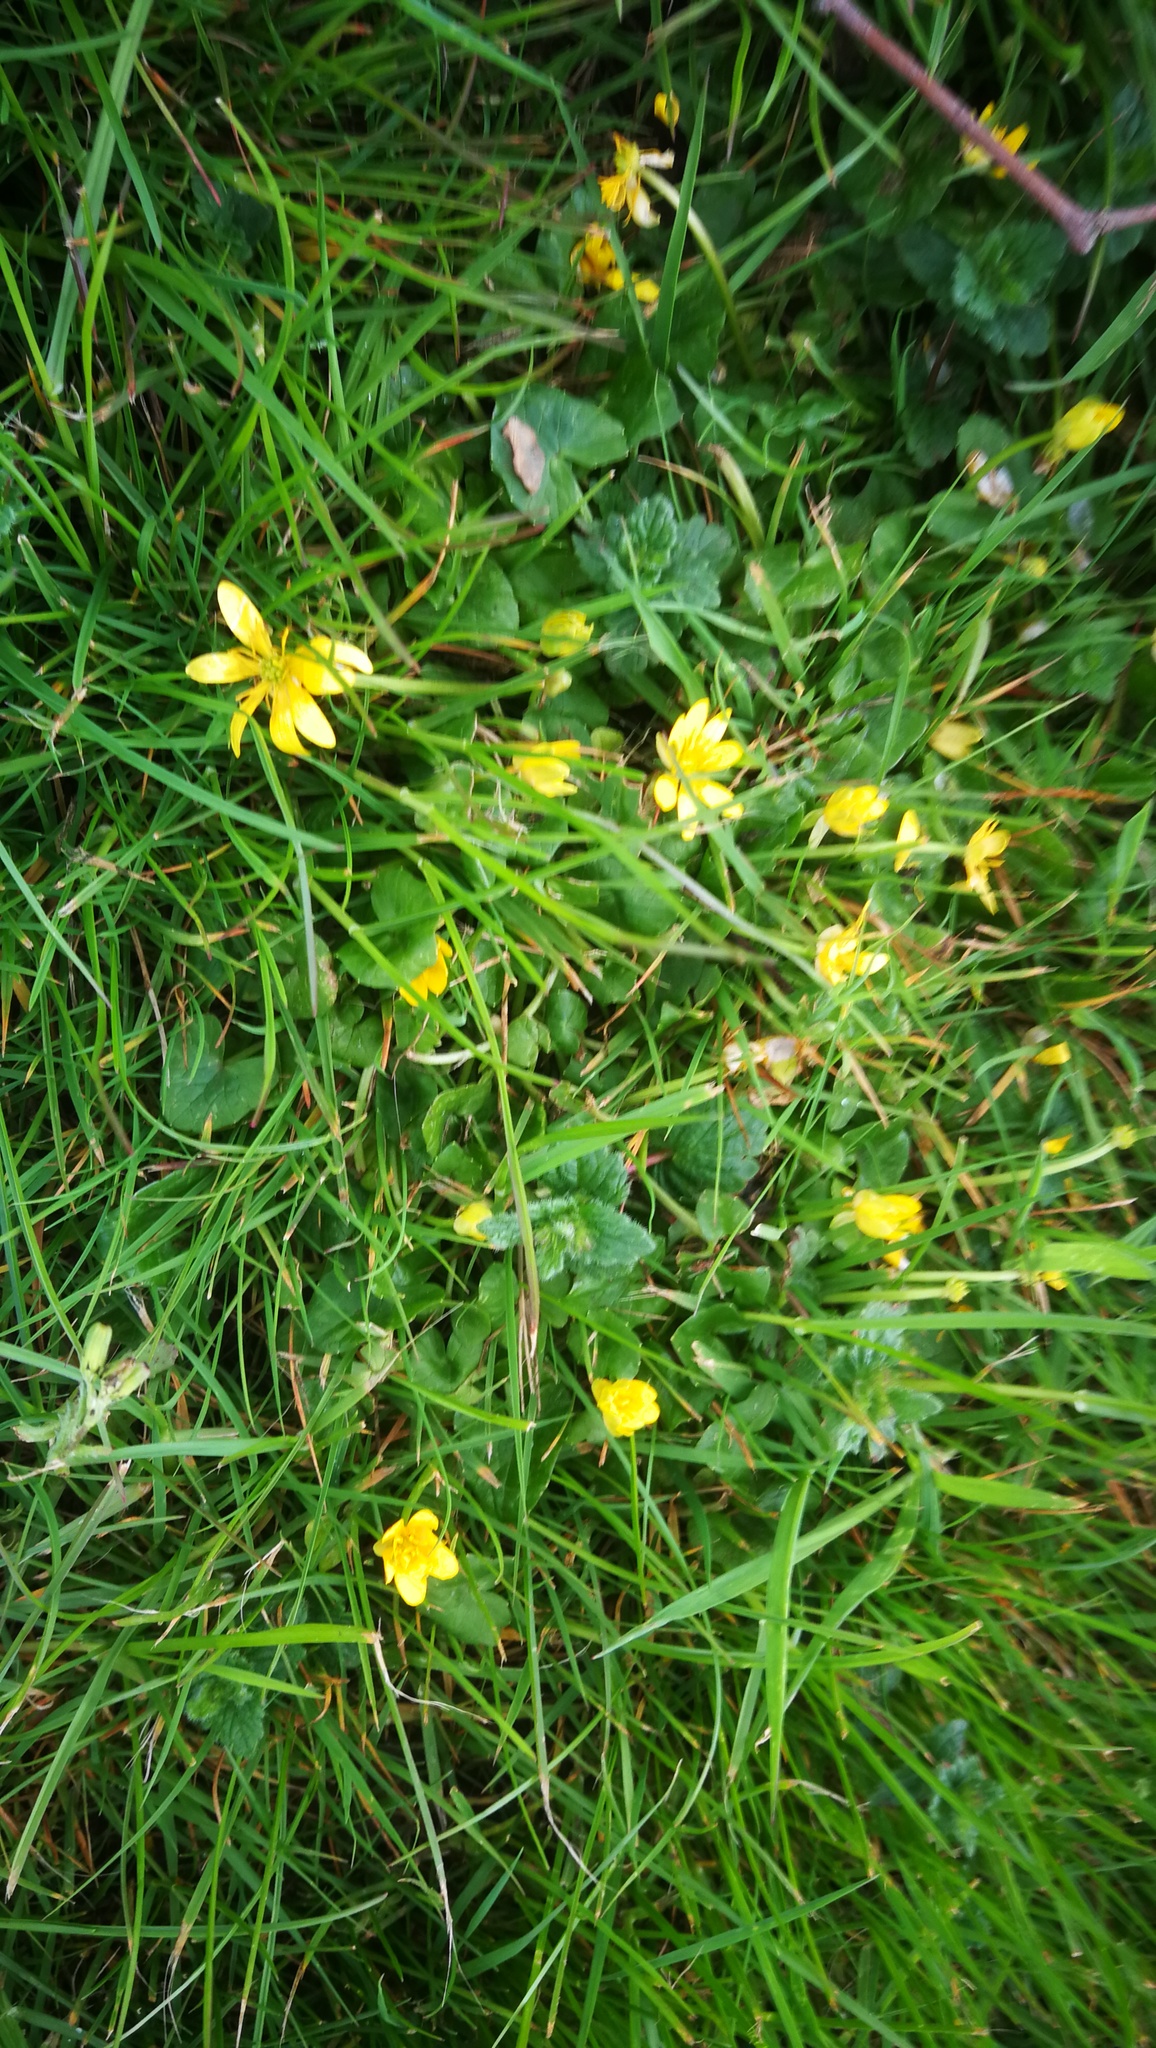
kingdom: Plantae
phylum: Tracheophyta
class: Magnoliopsida
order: Ranunculales
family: Ranunculaceae
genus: Ficaria
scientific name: Ficaria verna
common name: Lesser celandine
